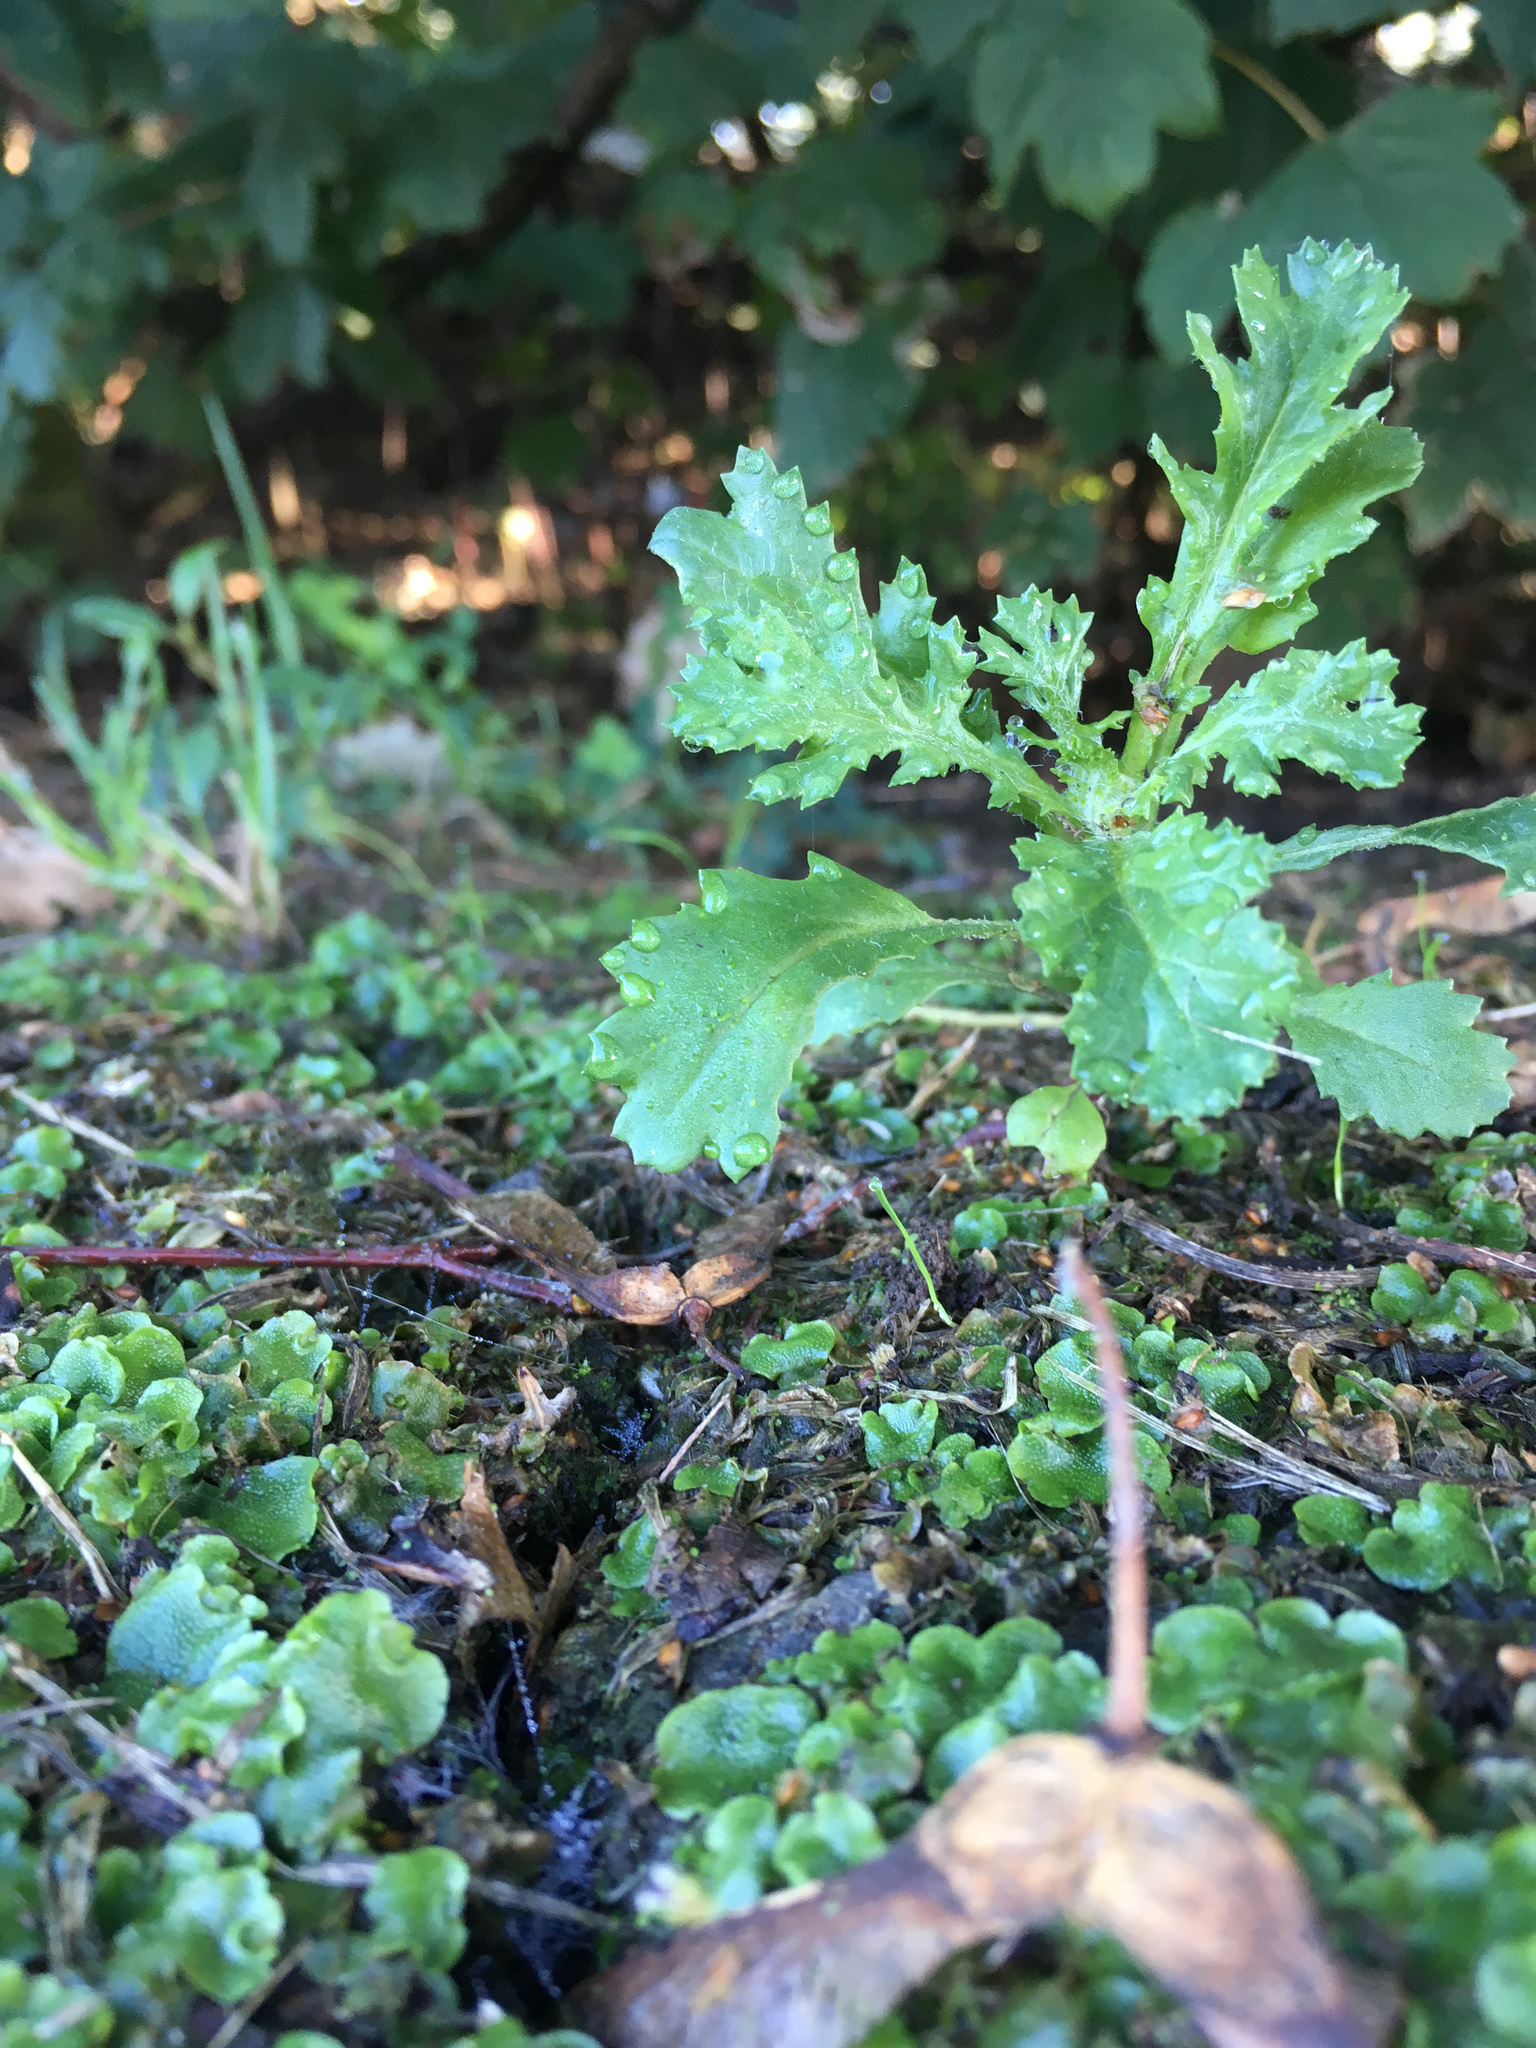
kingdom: Plantae
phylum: Tracheophyta
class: Magnoliopsida
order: Asterales
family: Asteraceae
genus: Senecio
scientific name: Senecio vulgaris
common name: Old-man-in-the-spring
